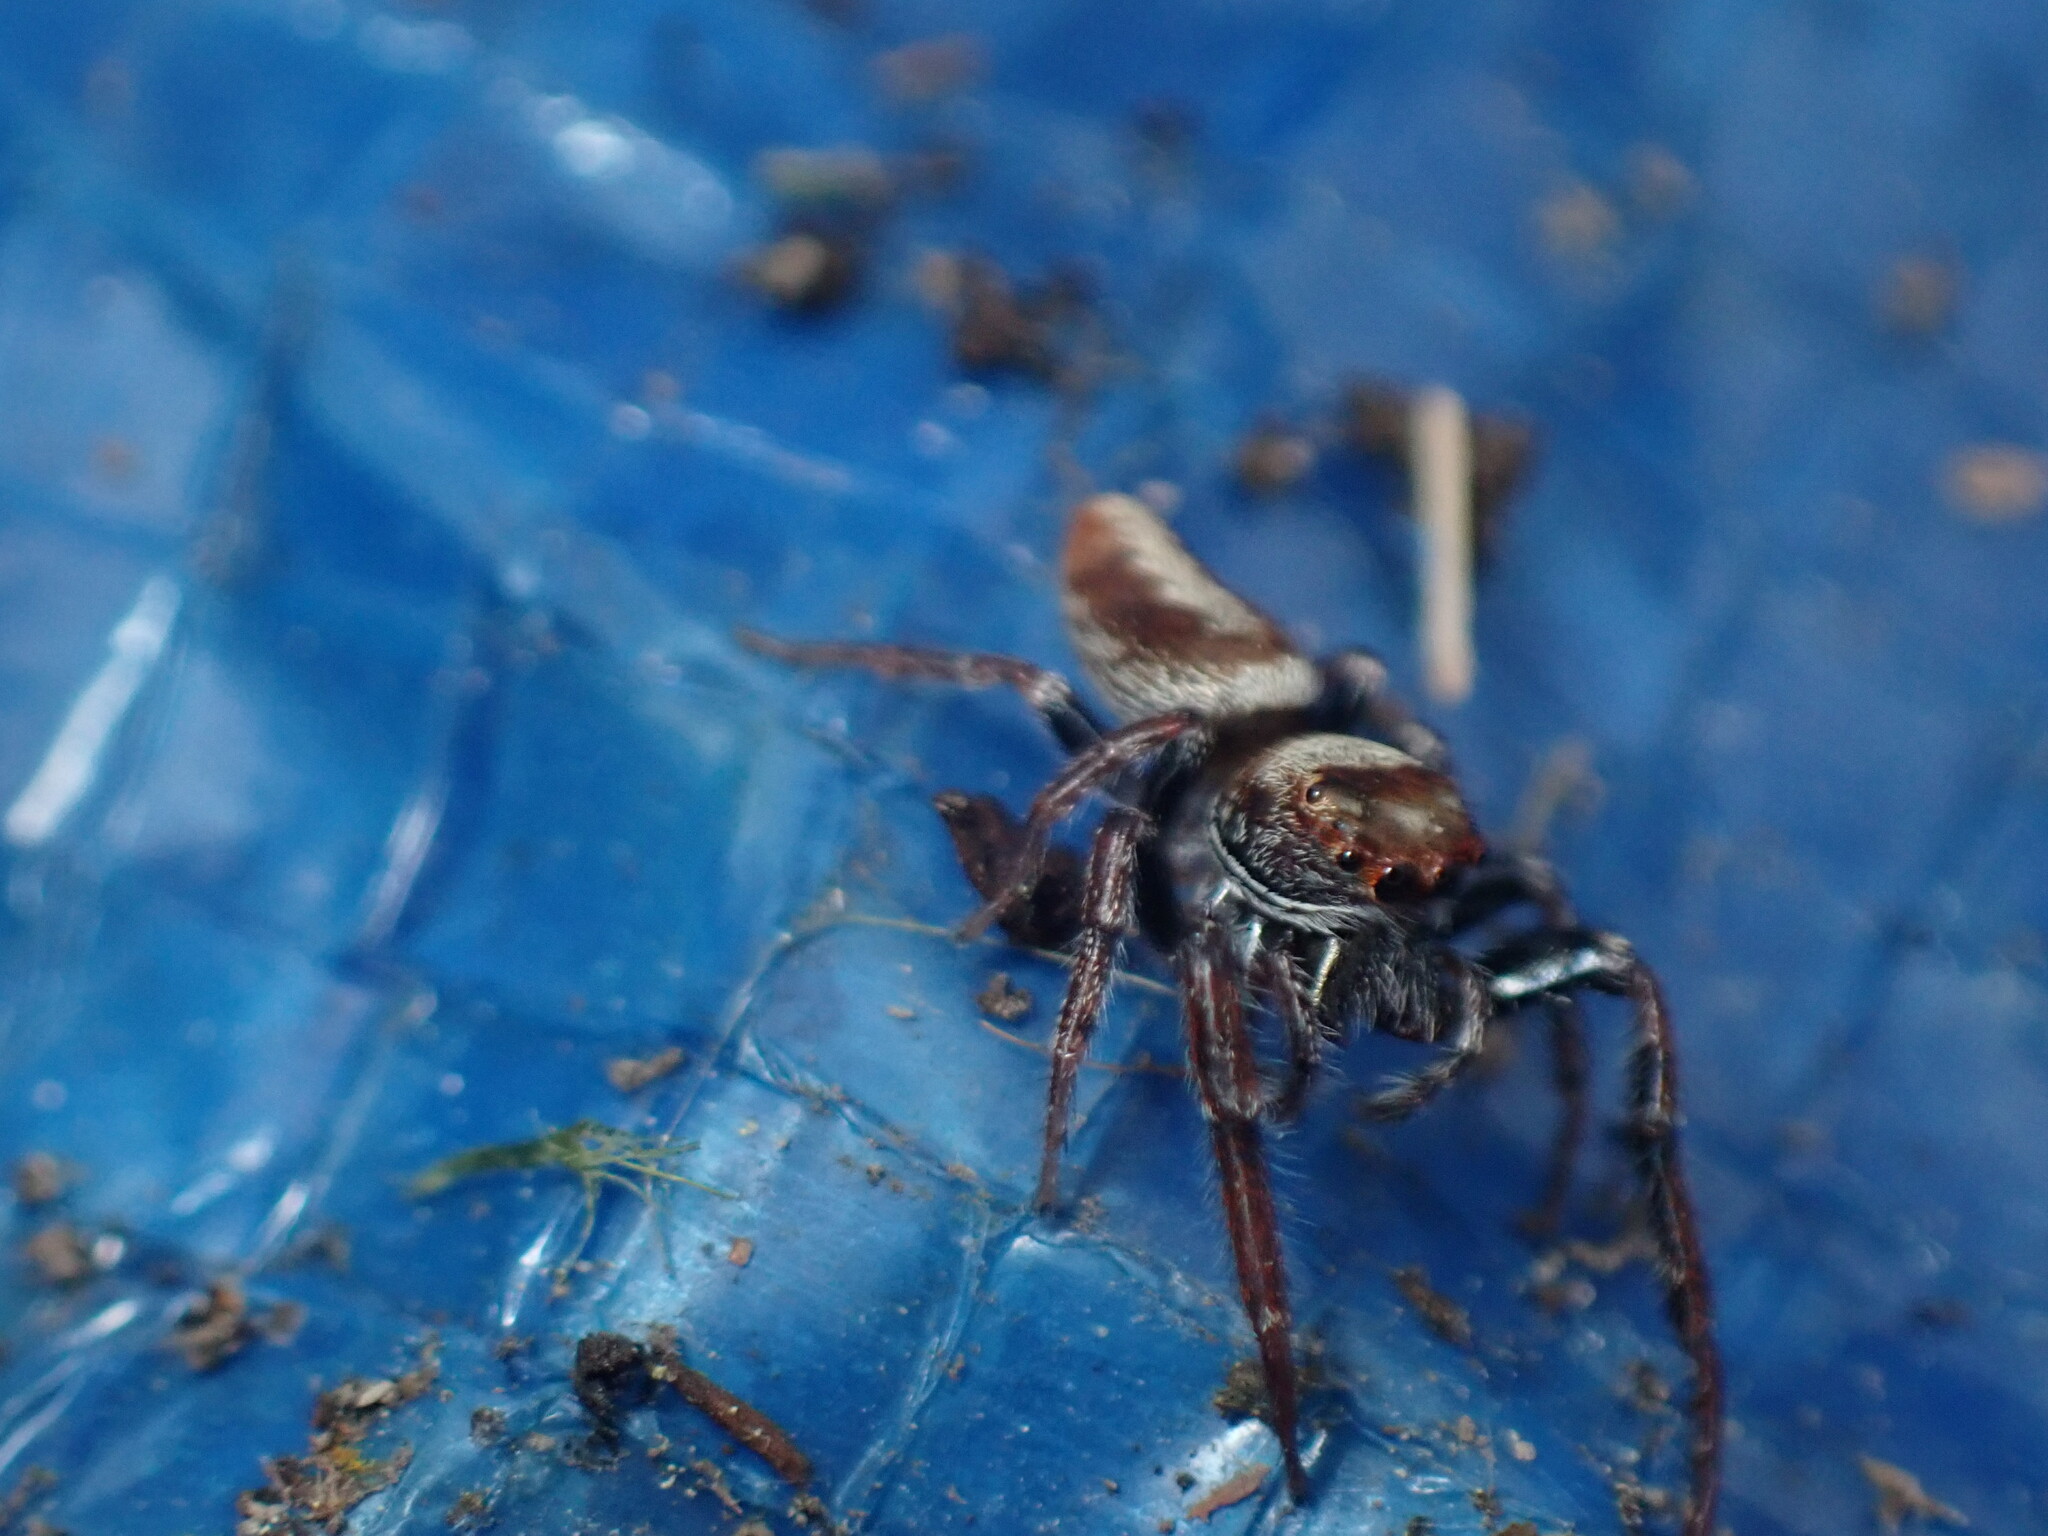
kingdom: Animalia
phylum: Arthropoda
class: Arachnida
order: Araneae
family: Salticidae
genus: Opisthoncus
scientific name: Opisthoncus polyphemus
